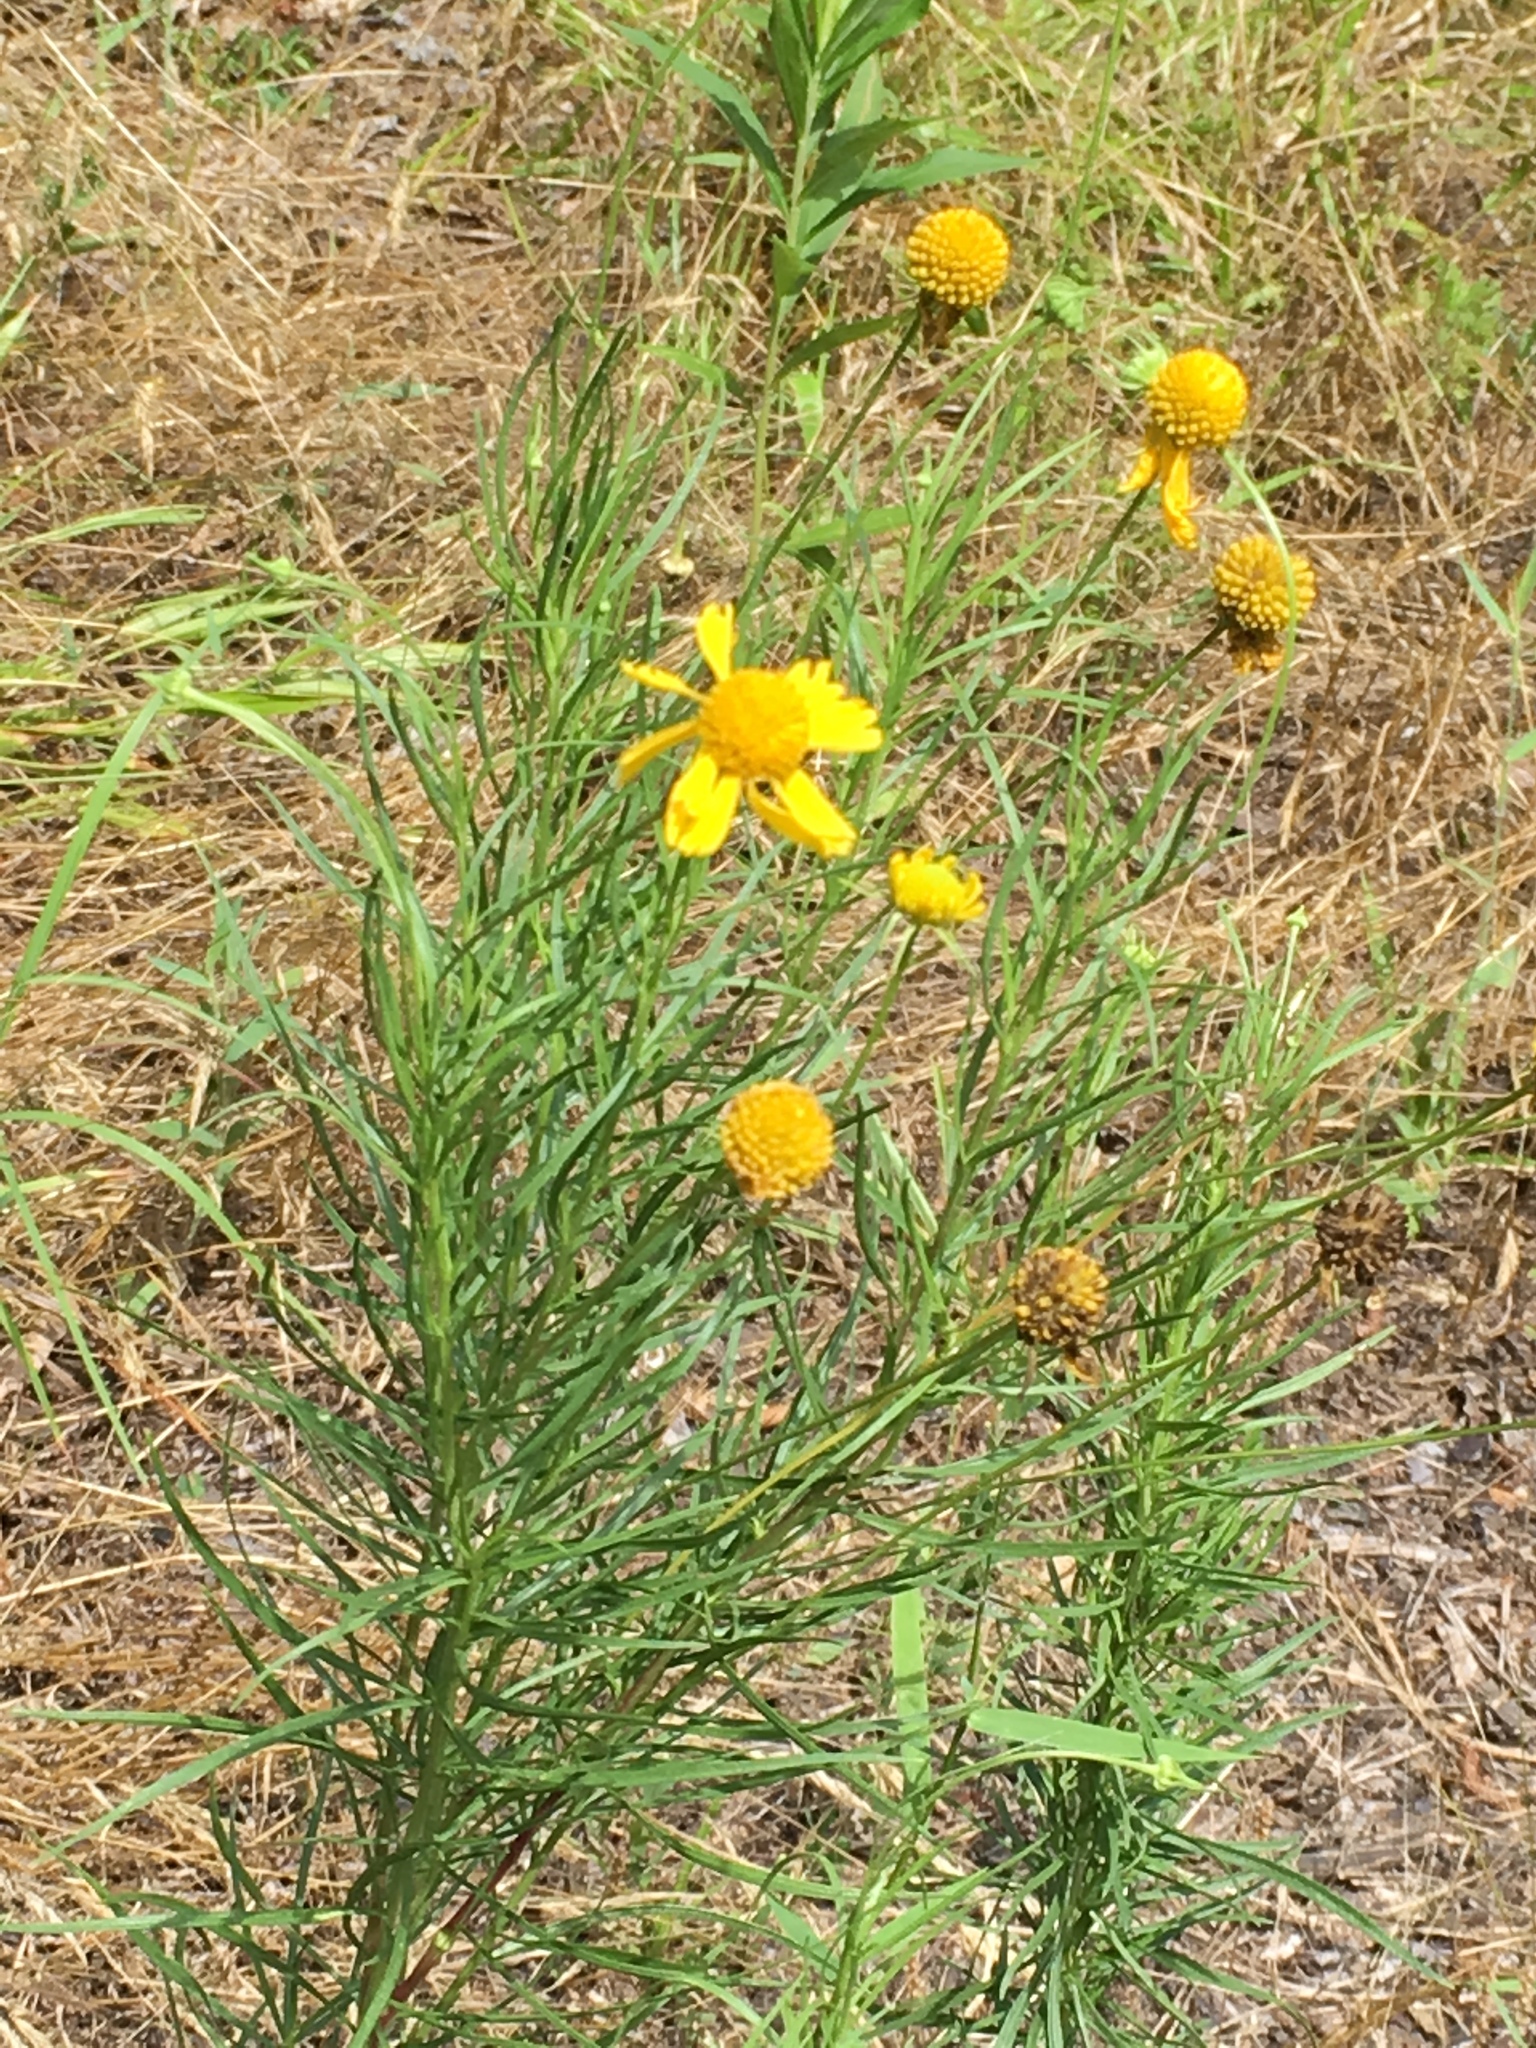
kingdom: Plantae
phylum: Tracheophyta
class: Magnoliopsida
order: Asterales
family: Asteraceae
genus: Helenium
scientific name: Helenium amarum
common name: Bitter sneezeweed
